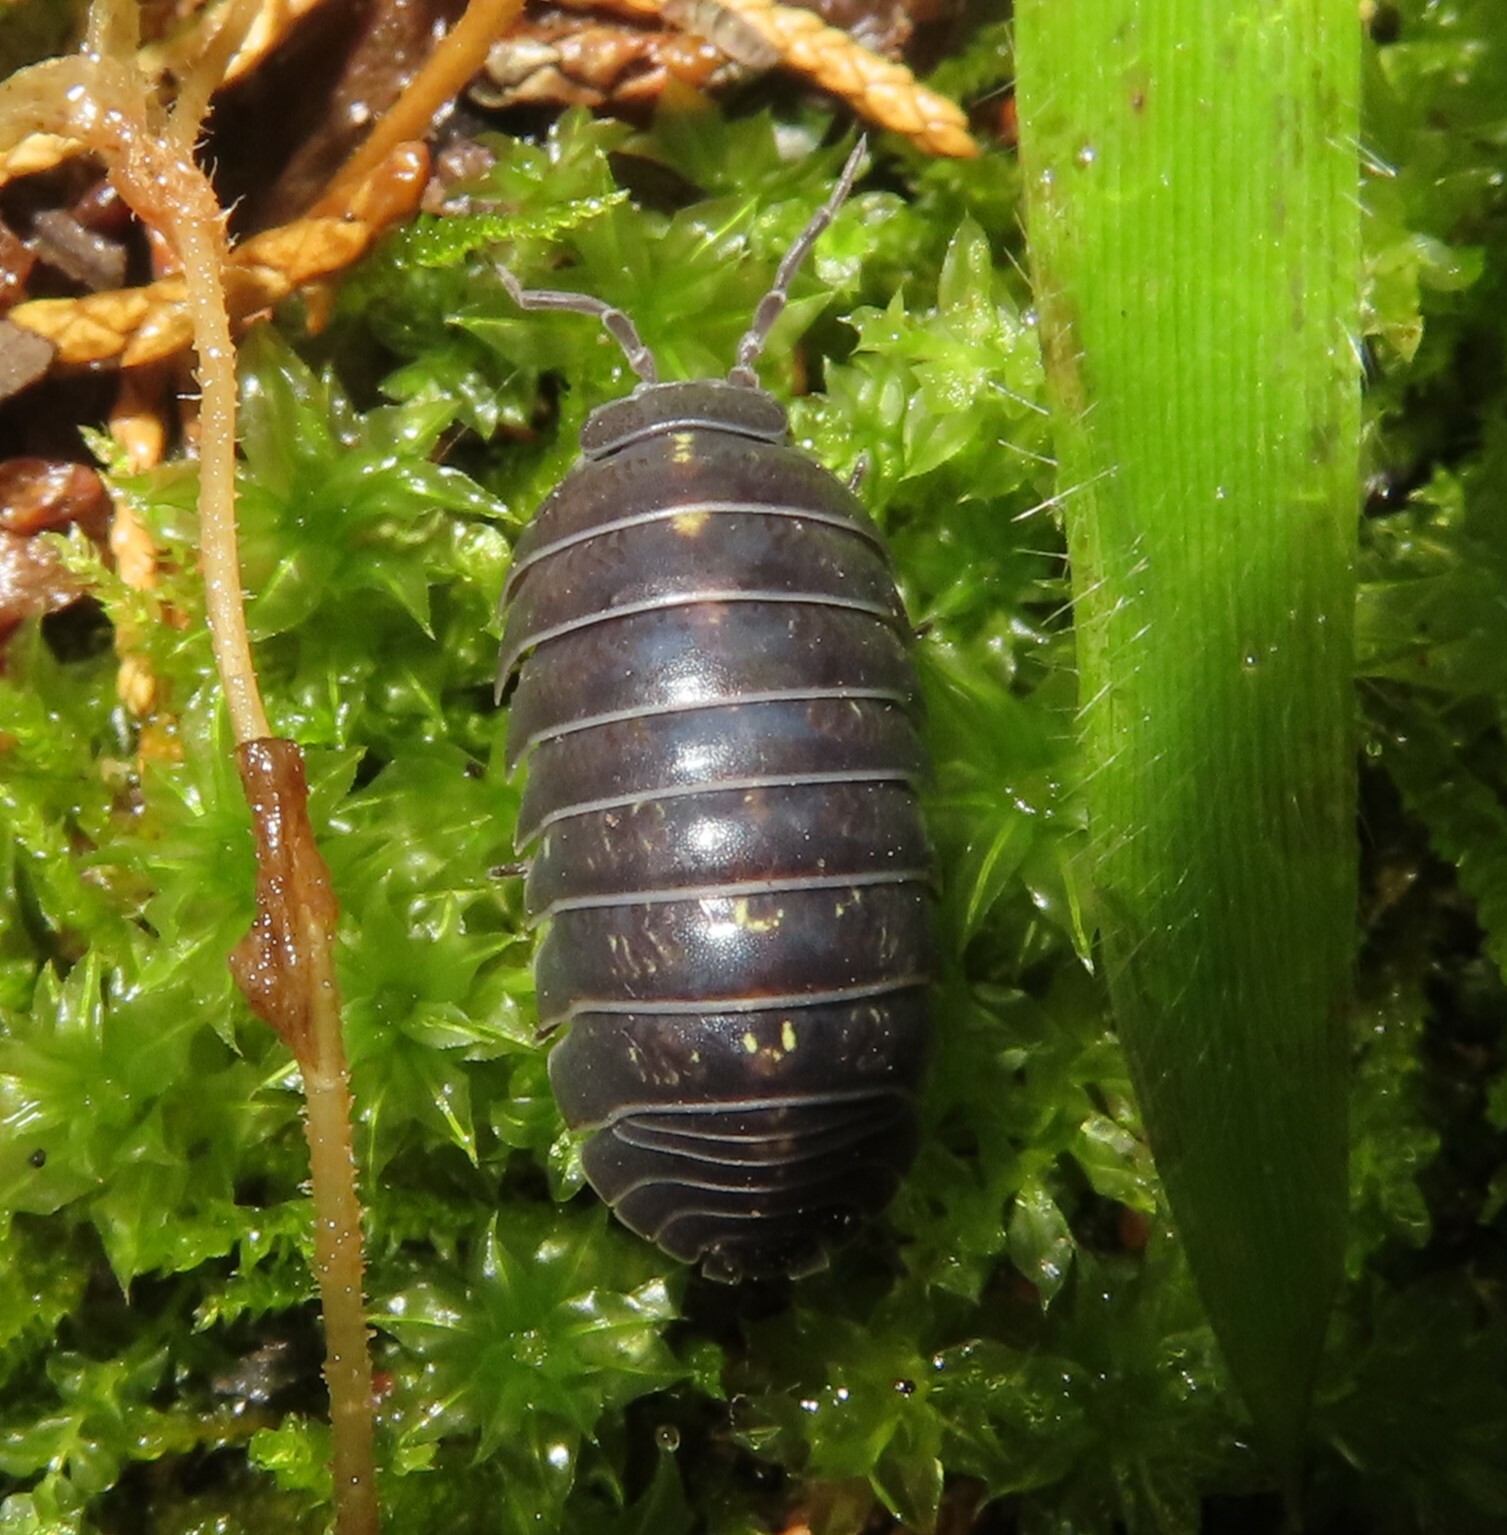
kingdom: Animalia
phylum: Arthropoda
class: Malacostraca
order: Isopoda
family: Armadillidiidae
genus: Armadillidium
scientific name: Armadillidium vulgare
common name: Common pill woodlouse
